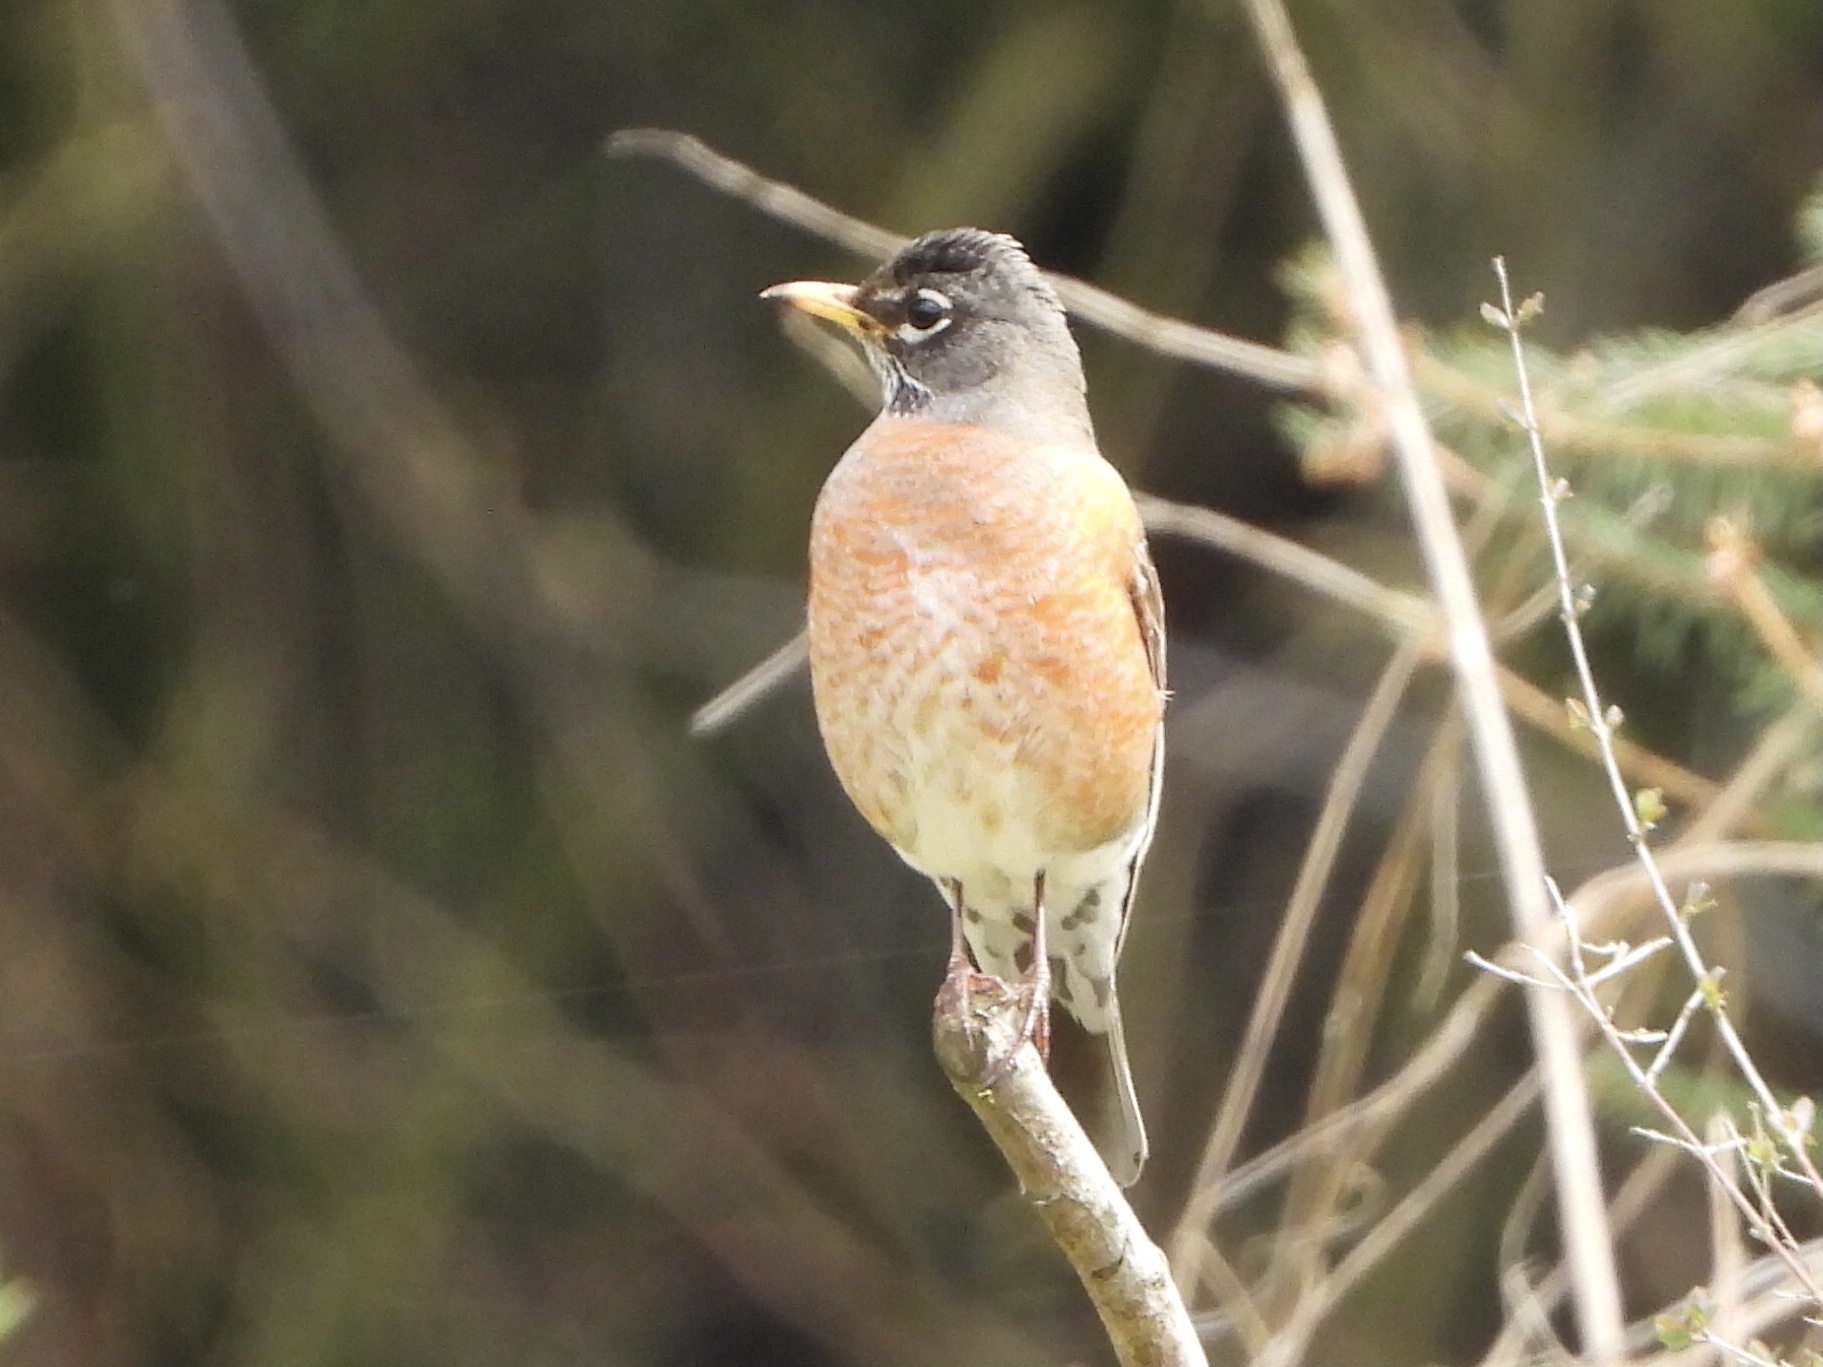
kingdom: Animalia
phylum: Chordata
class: Aves
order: Passeriformes
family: Turdidae
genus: Turdus
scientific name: Turdus migratorius
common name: American robin
